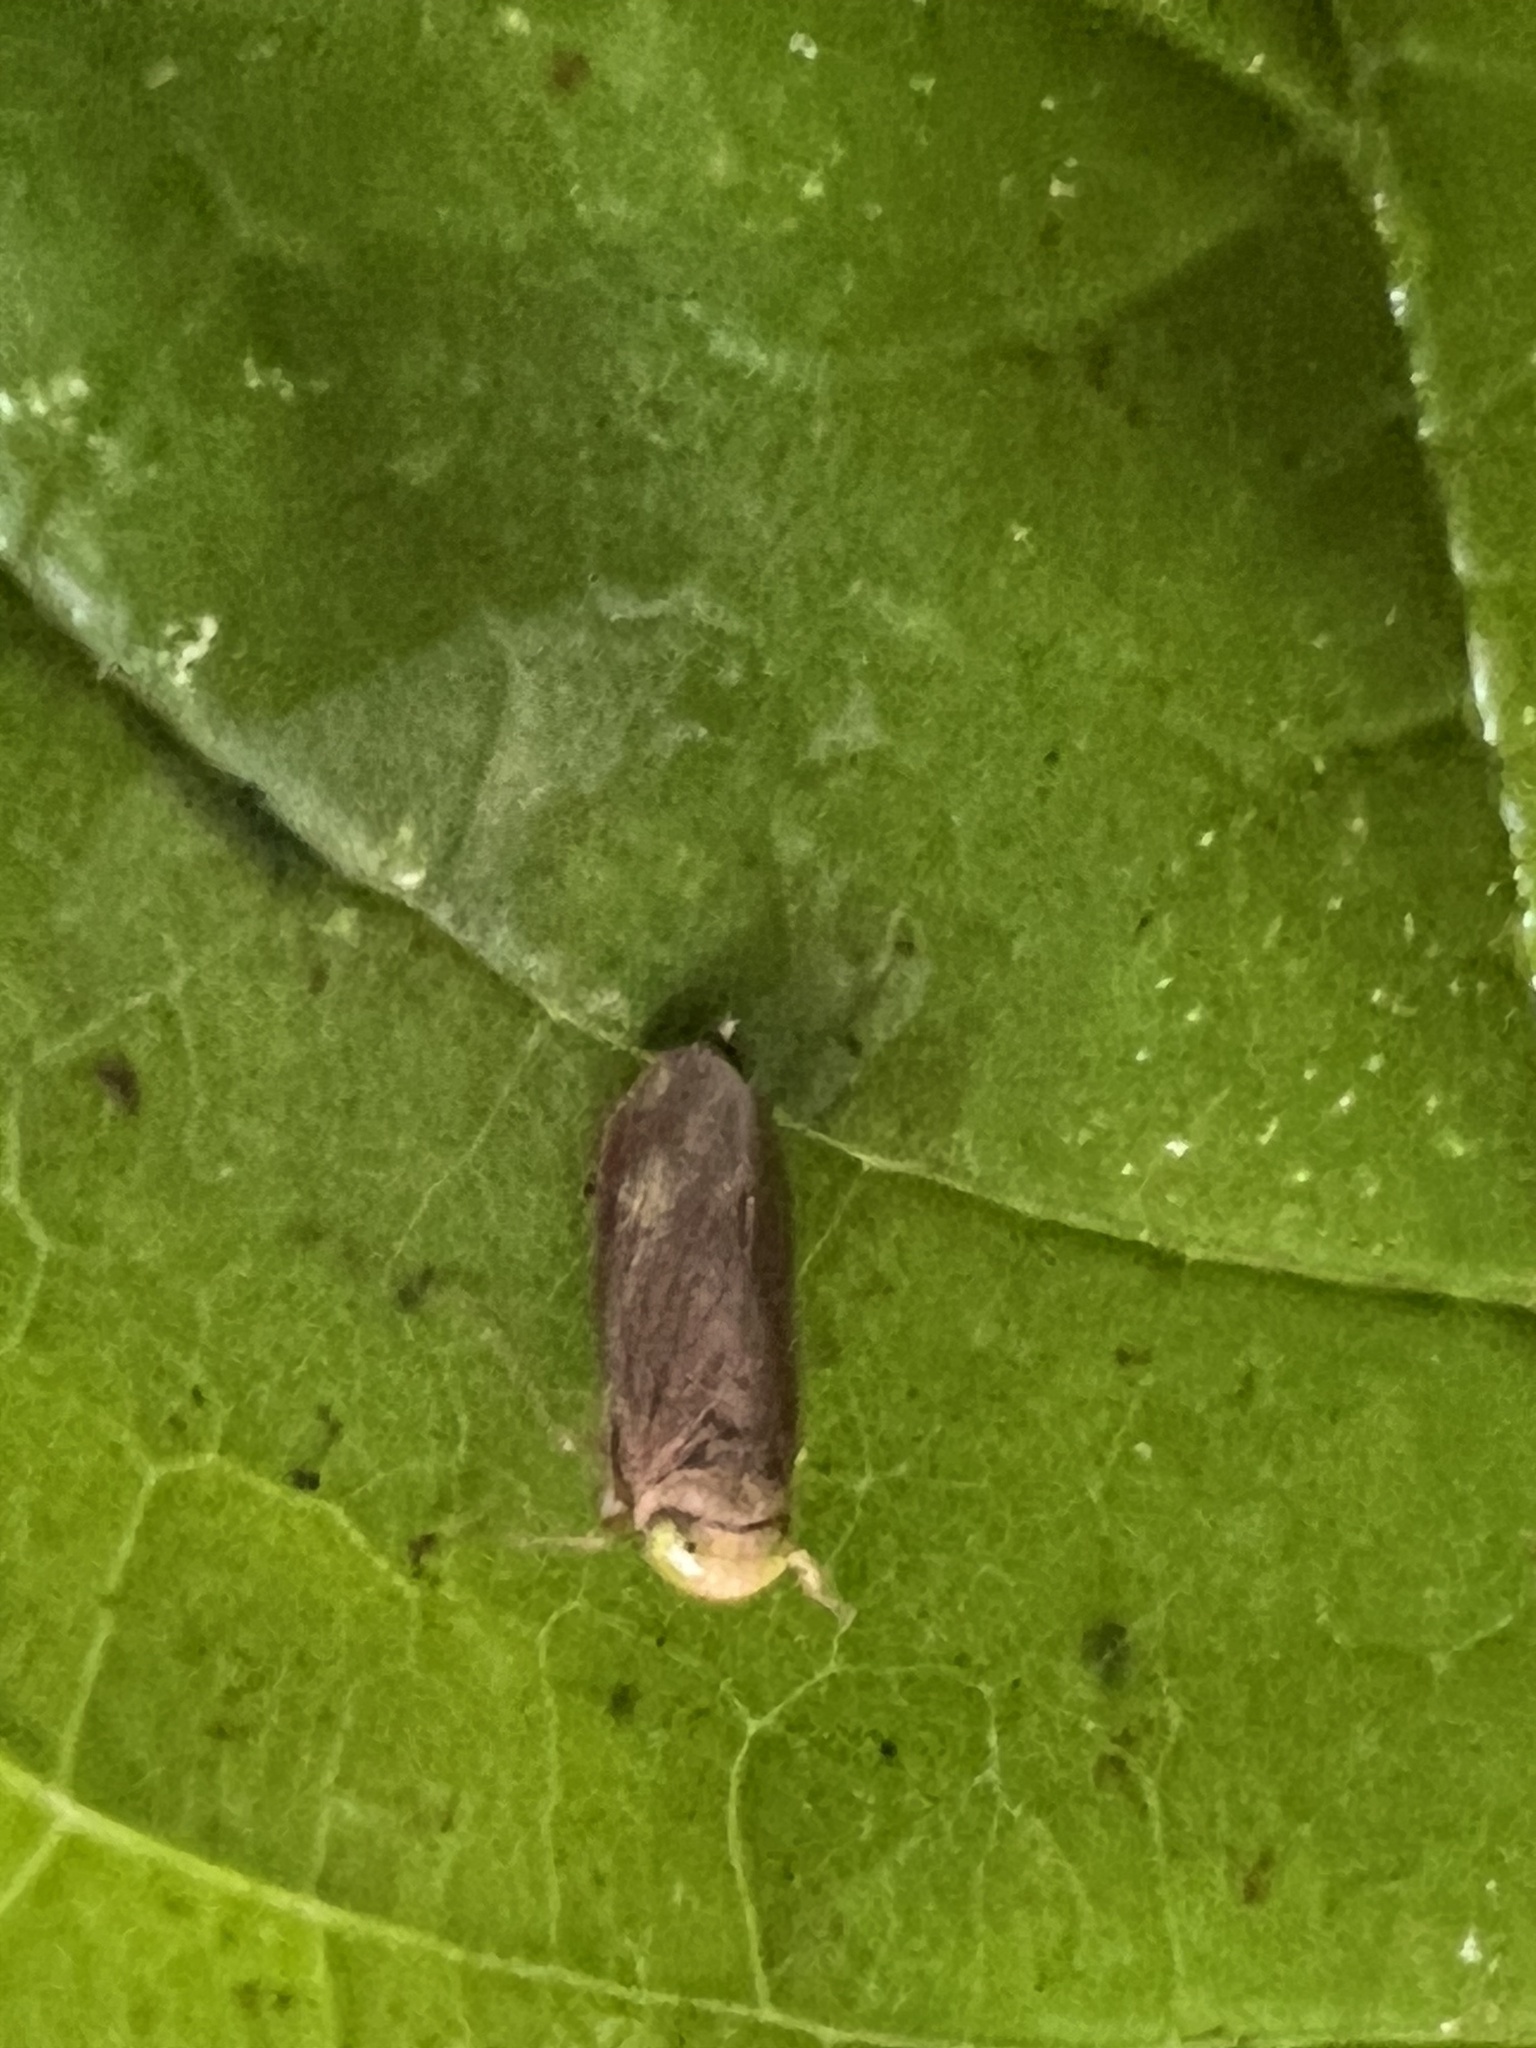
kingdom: Animalia
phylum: Arthropoda
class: Insecta
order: Hemiptera
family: Cicadellidae
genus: Jikradia
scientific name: Jikradia olitoria
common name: Coppery leafhopper
